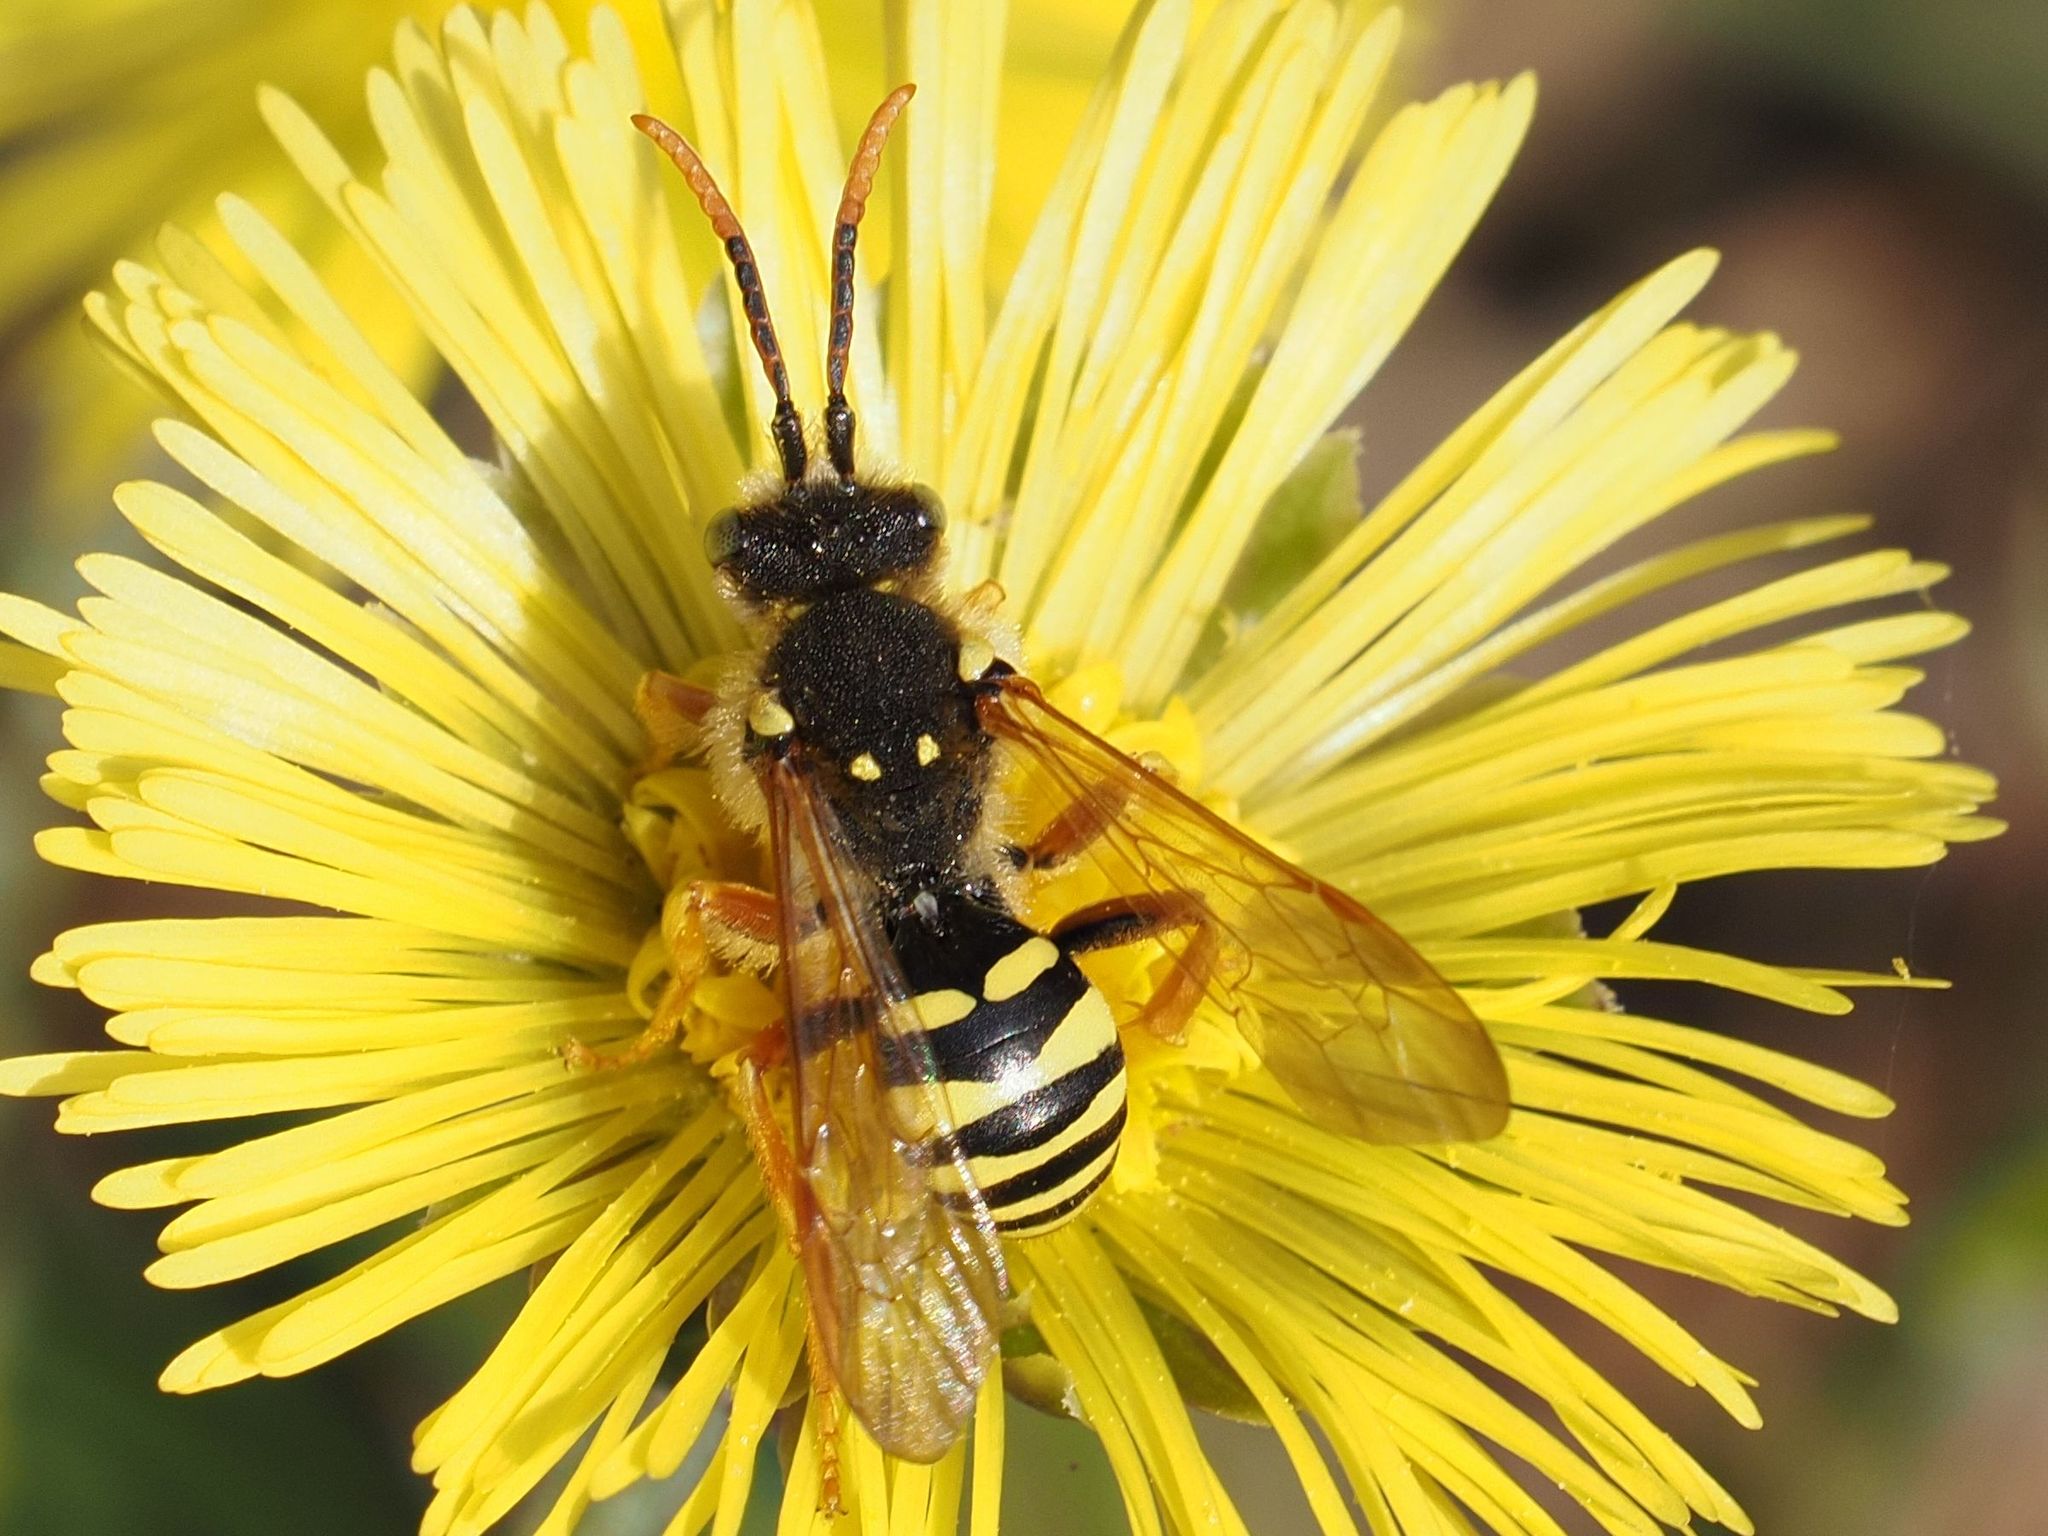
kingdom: Animalia
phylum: Arthropoda
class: Insecta
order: Hymenoptera
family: Apidae
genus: Nomada
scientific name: Nomada goodeniana
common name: Gooden's nomad bee
